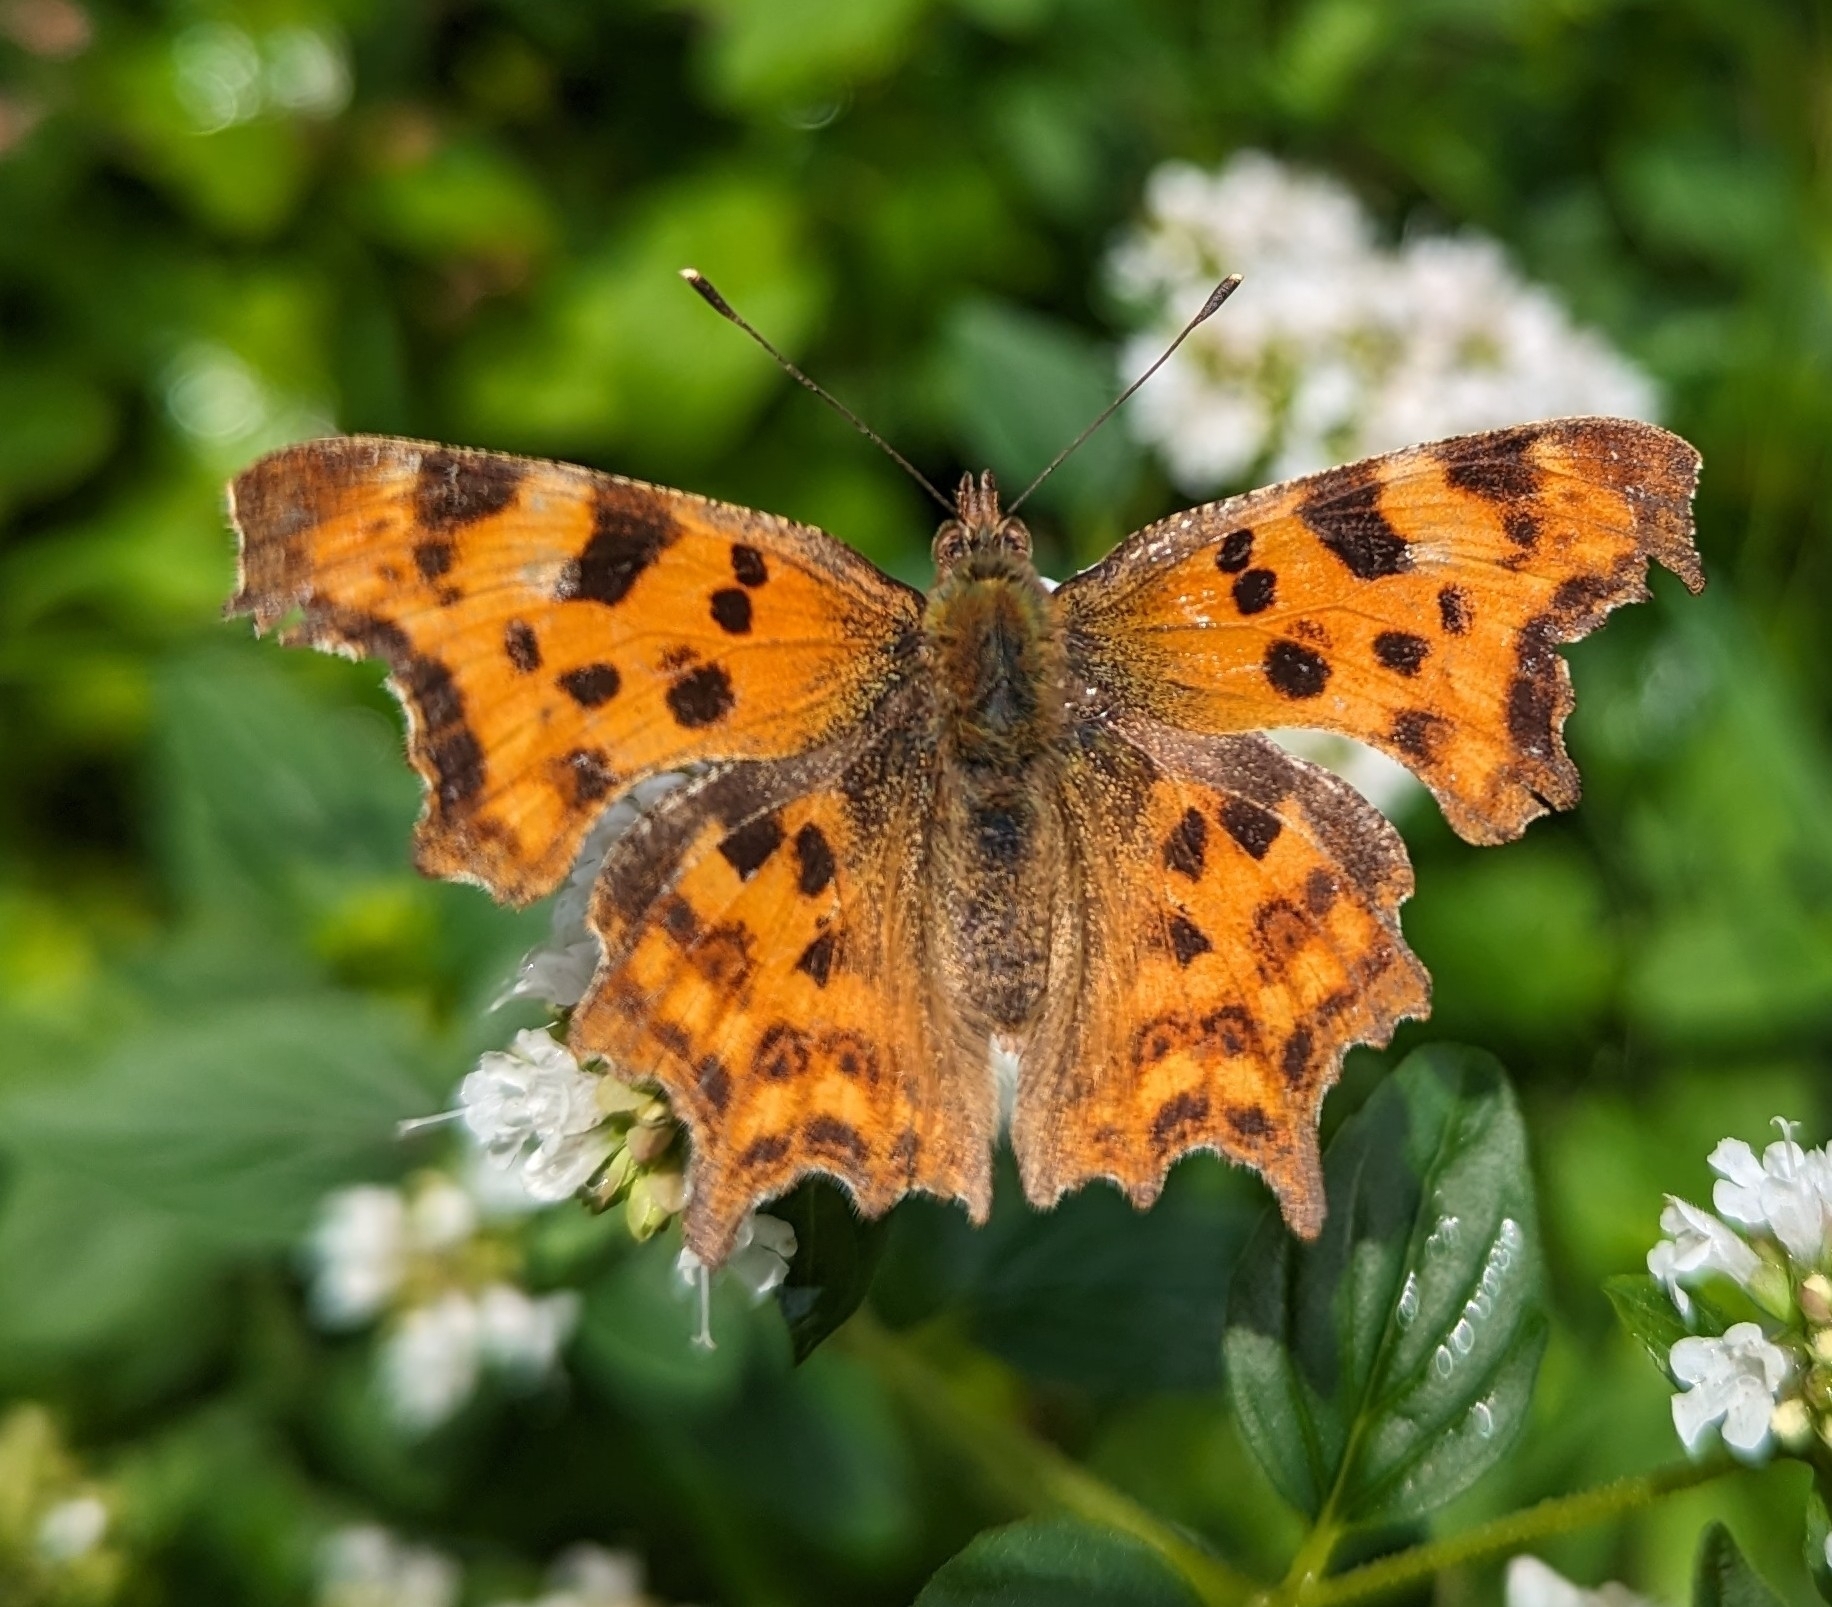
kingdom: Animalia
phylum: Arthropoda
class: Insecta
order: Lepidoptera
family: Nymphalidae
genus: Polygonia
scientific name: Polygonia c-album
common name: Comma
